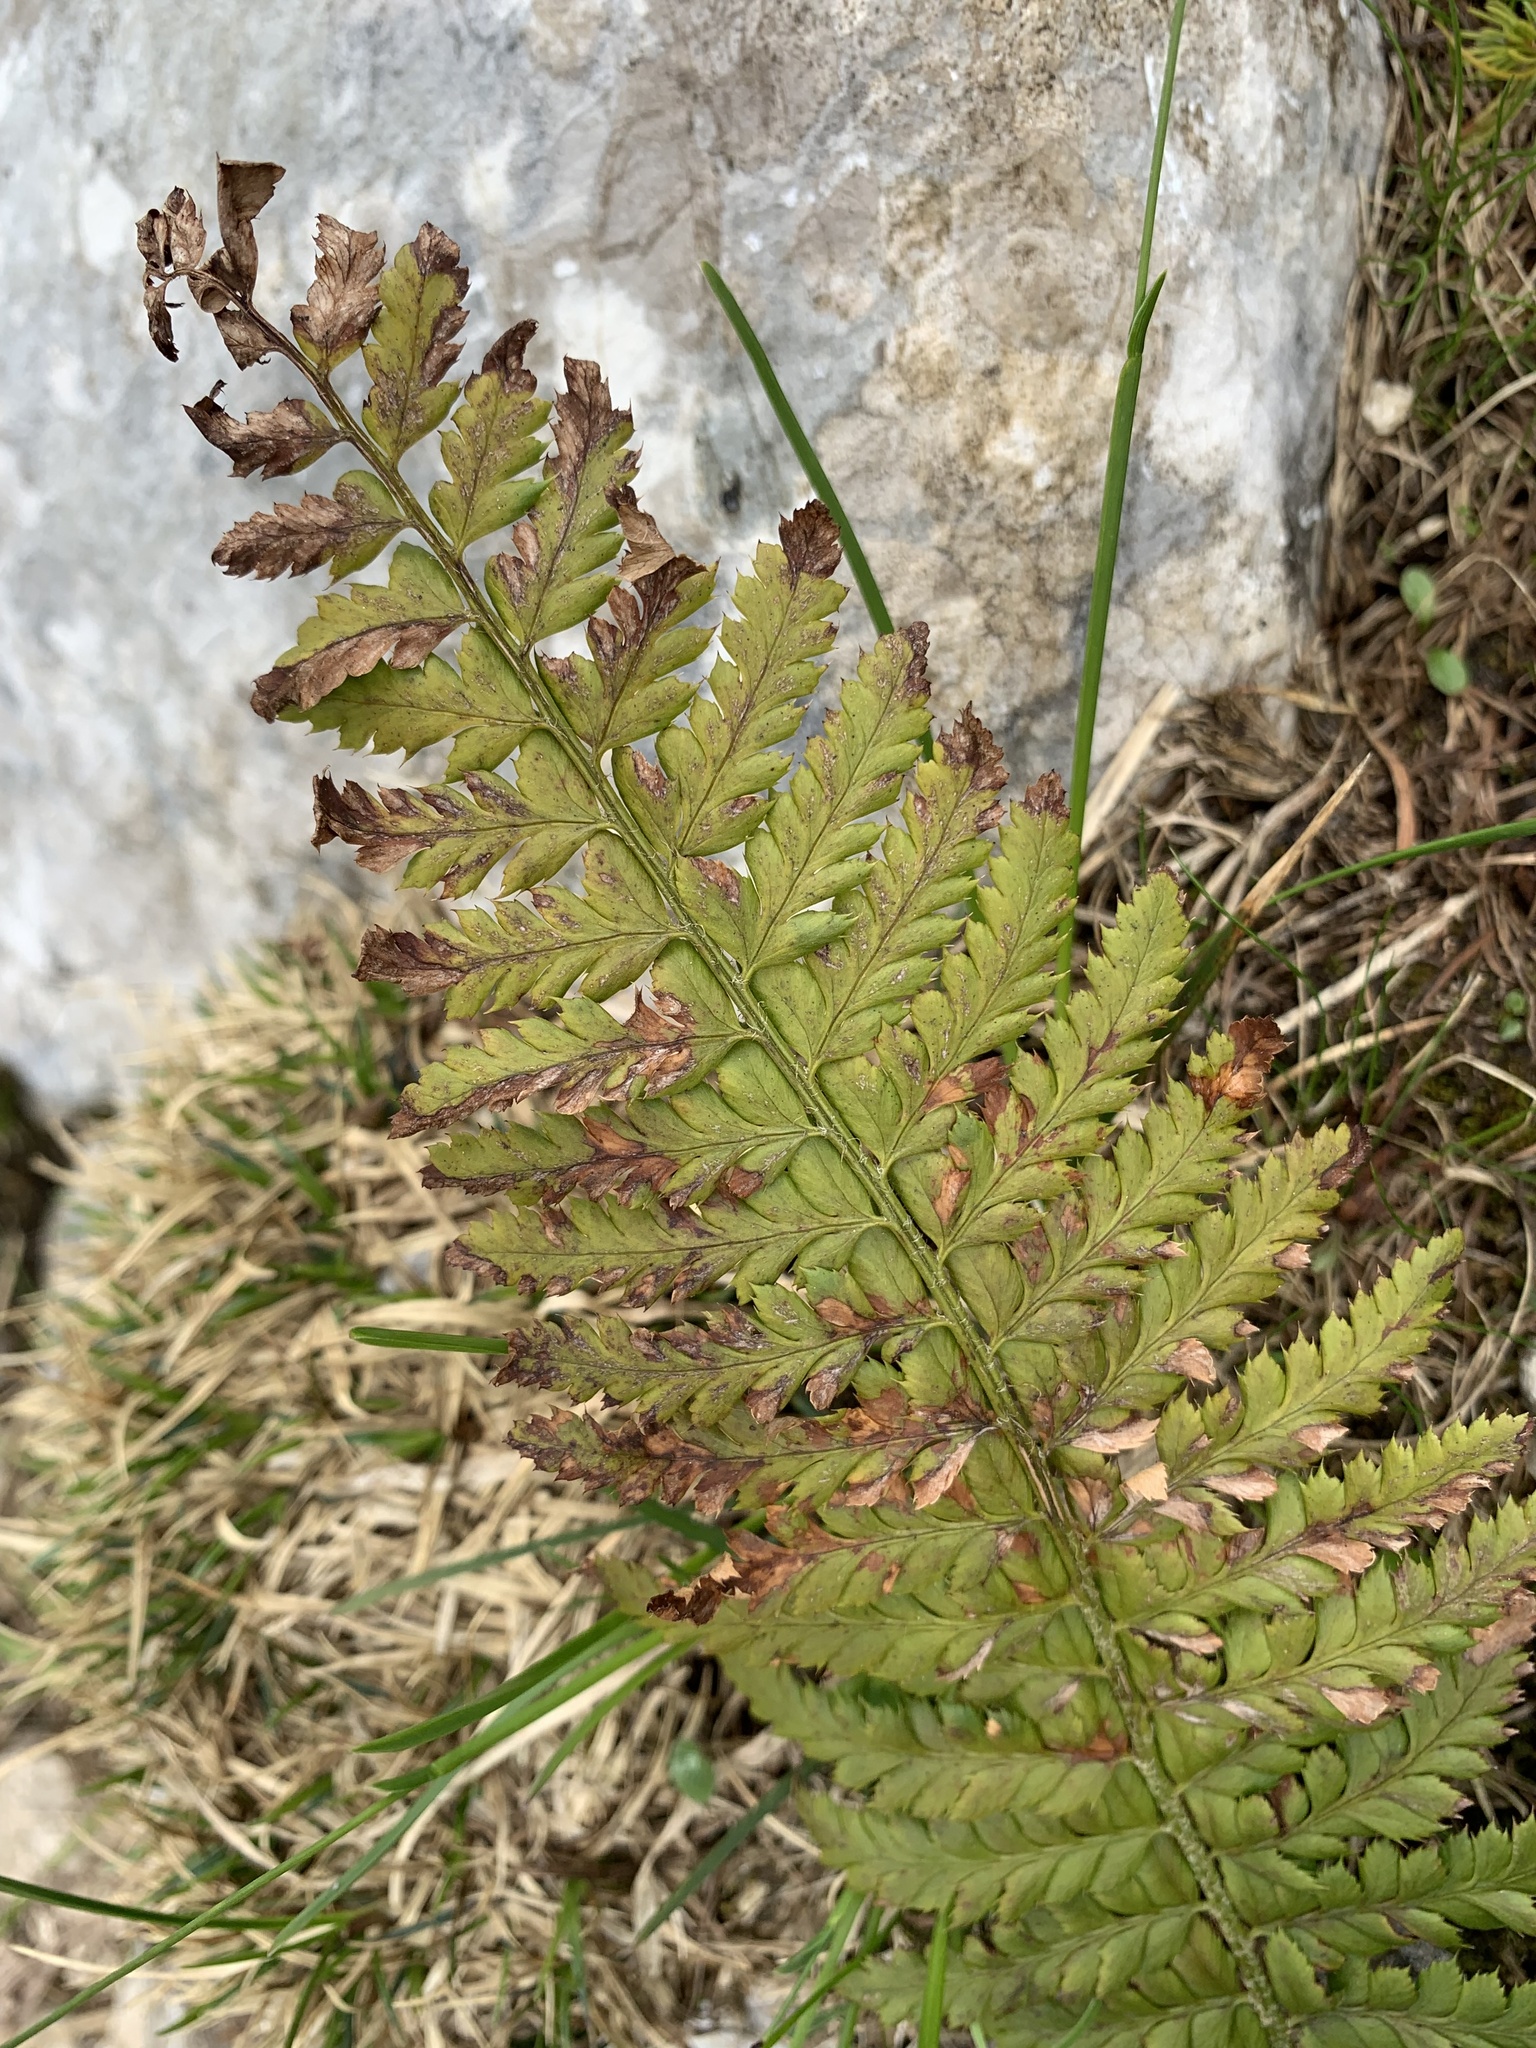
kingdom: Plantae
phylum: Tracheophyta
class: Polypodiopsida
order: Polypodiales
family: Dryopteridaceae
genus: Polystichum
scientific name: Polystichum aculeatum
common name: Hard shield-fern
